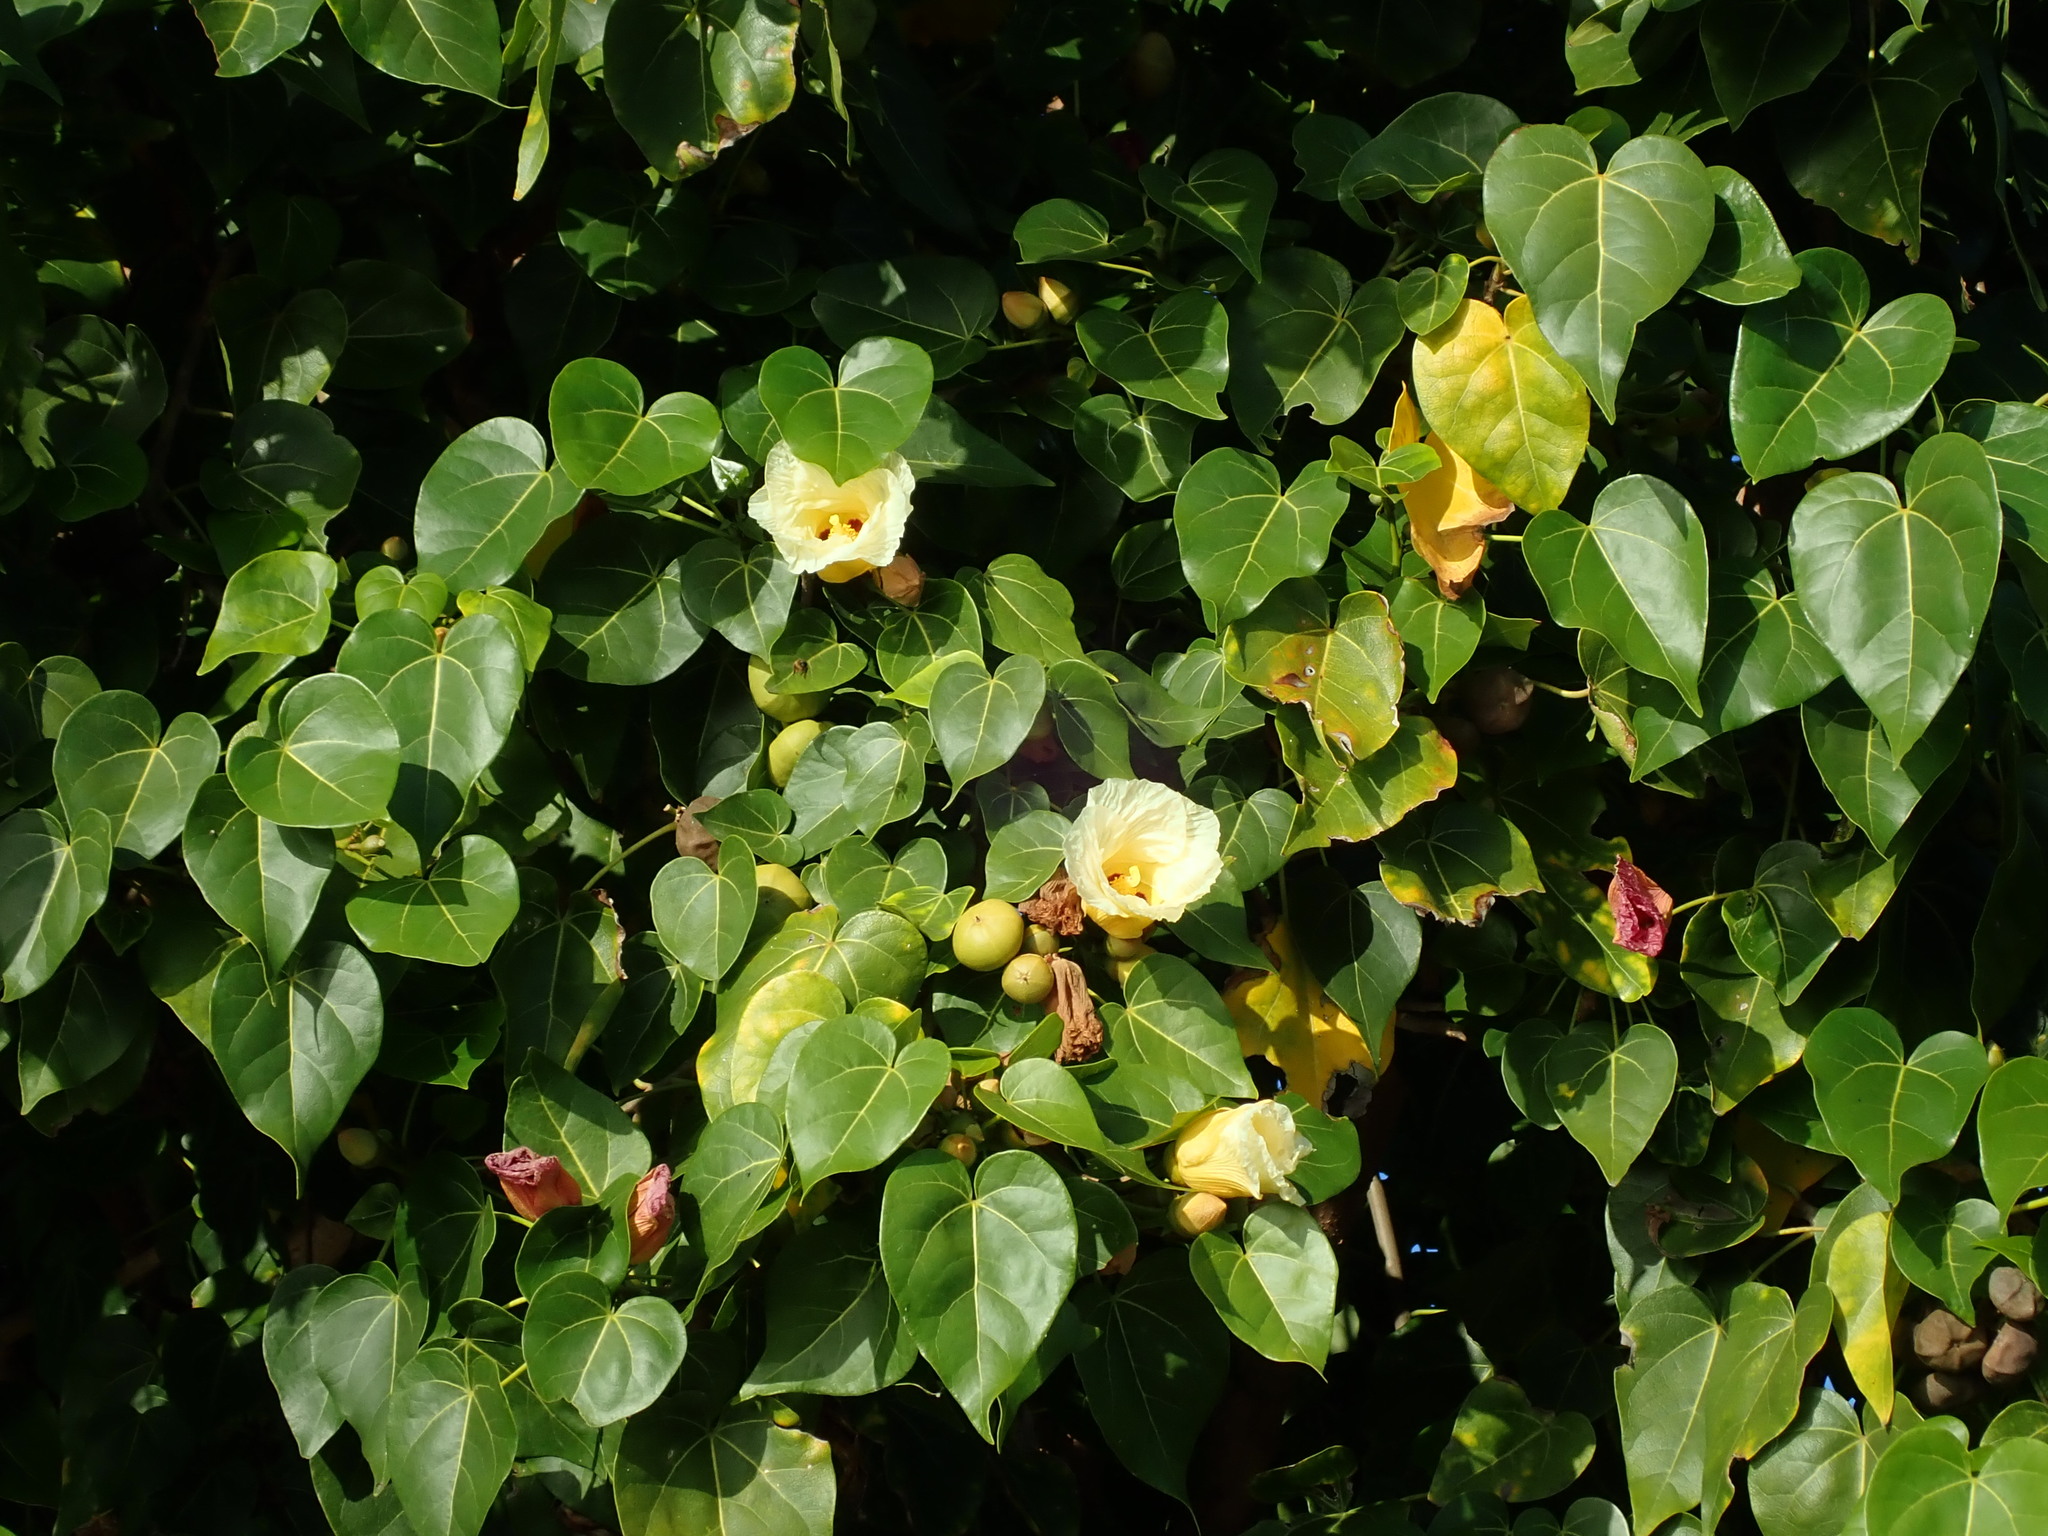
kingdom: Plantae
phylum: Tracheophyta
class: Magnoliopsida
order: Malvales
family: Malvaceae
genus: Thespesia
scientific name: Thespesia populnea
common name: Seaside mahoe
